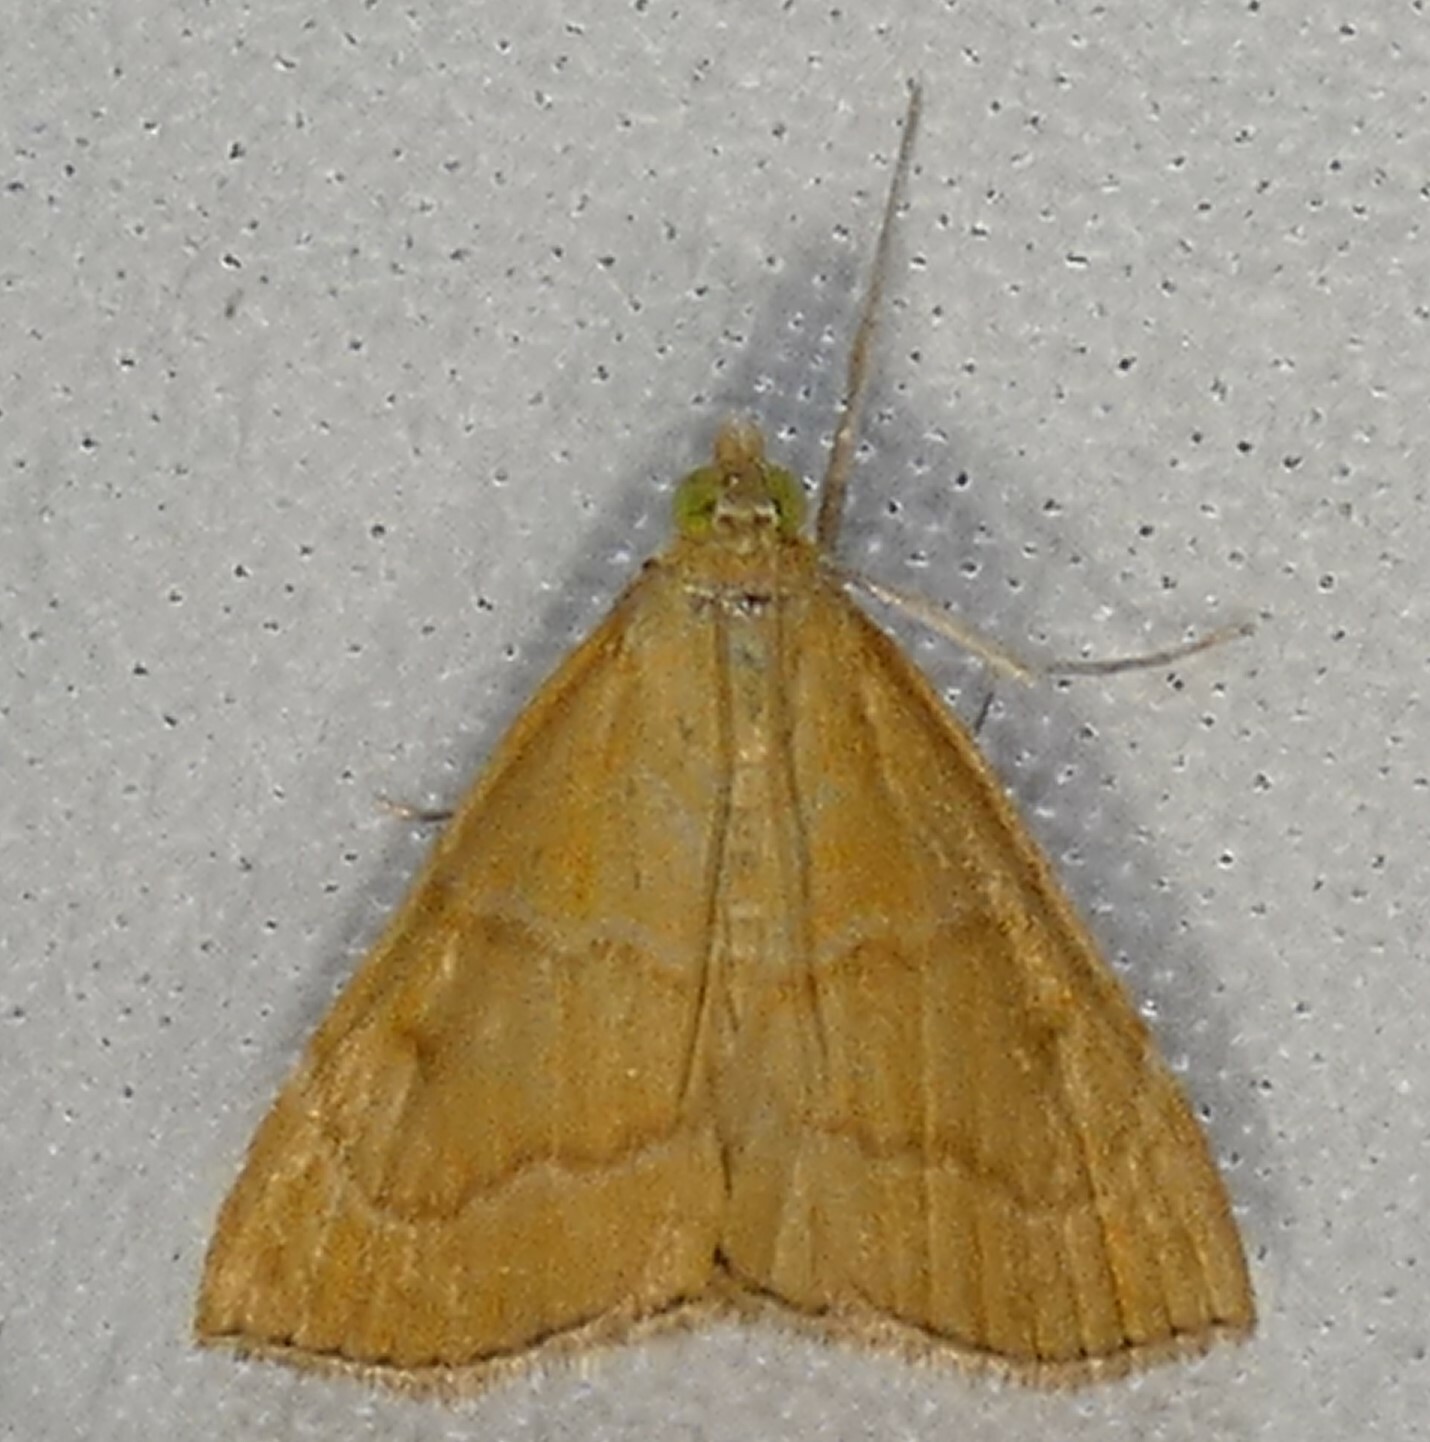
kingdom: Animalia
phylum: Arthropoda
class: Insecta
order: Lepidoptera
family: Crambidae
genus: Glaphyria
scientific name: Glaphyria invisalis
